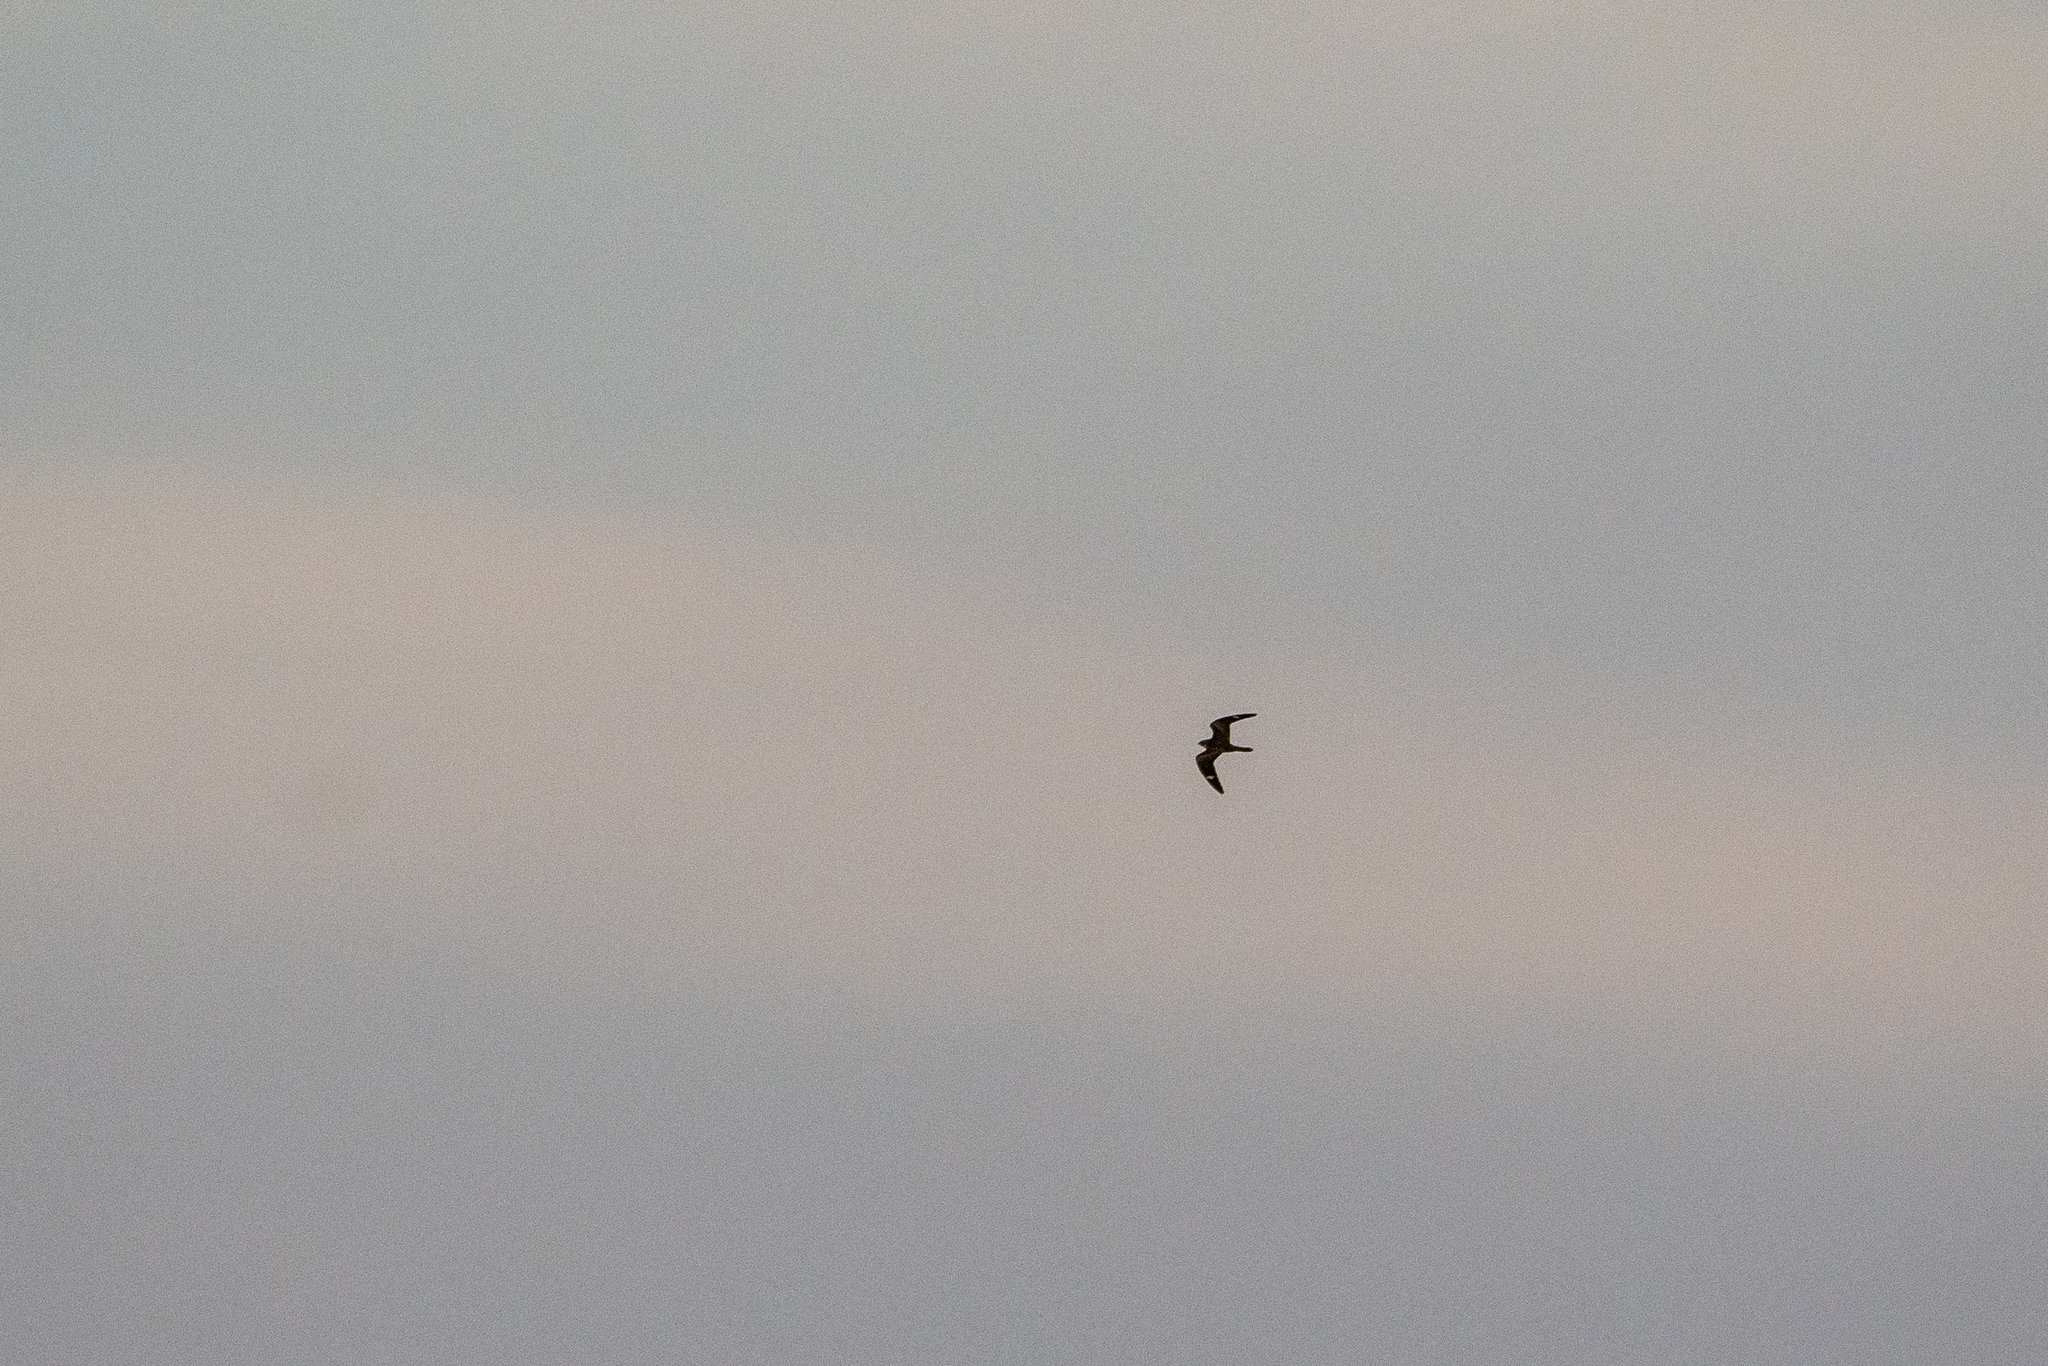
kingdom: Animalia
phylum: Chordata
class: Aves
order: Caprimulgiformes
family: Caprimulgidae
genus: Chordeiles
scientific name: Chordeiles minor
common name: Common nighthawk
